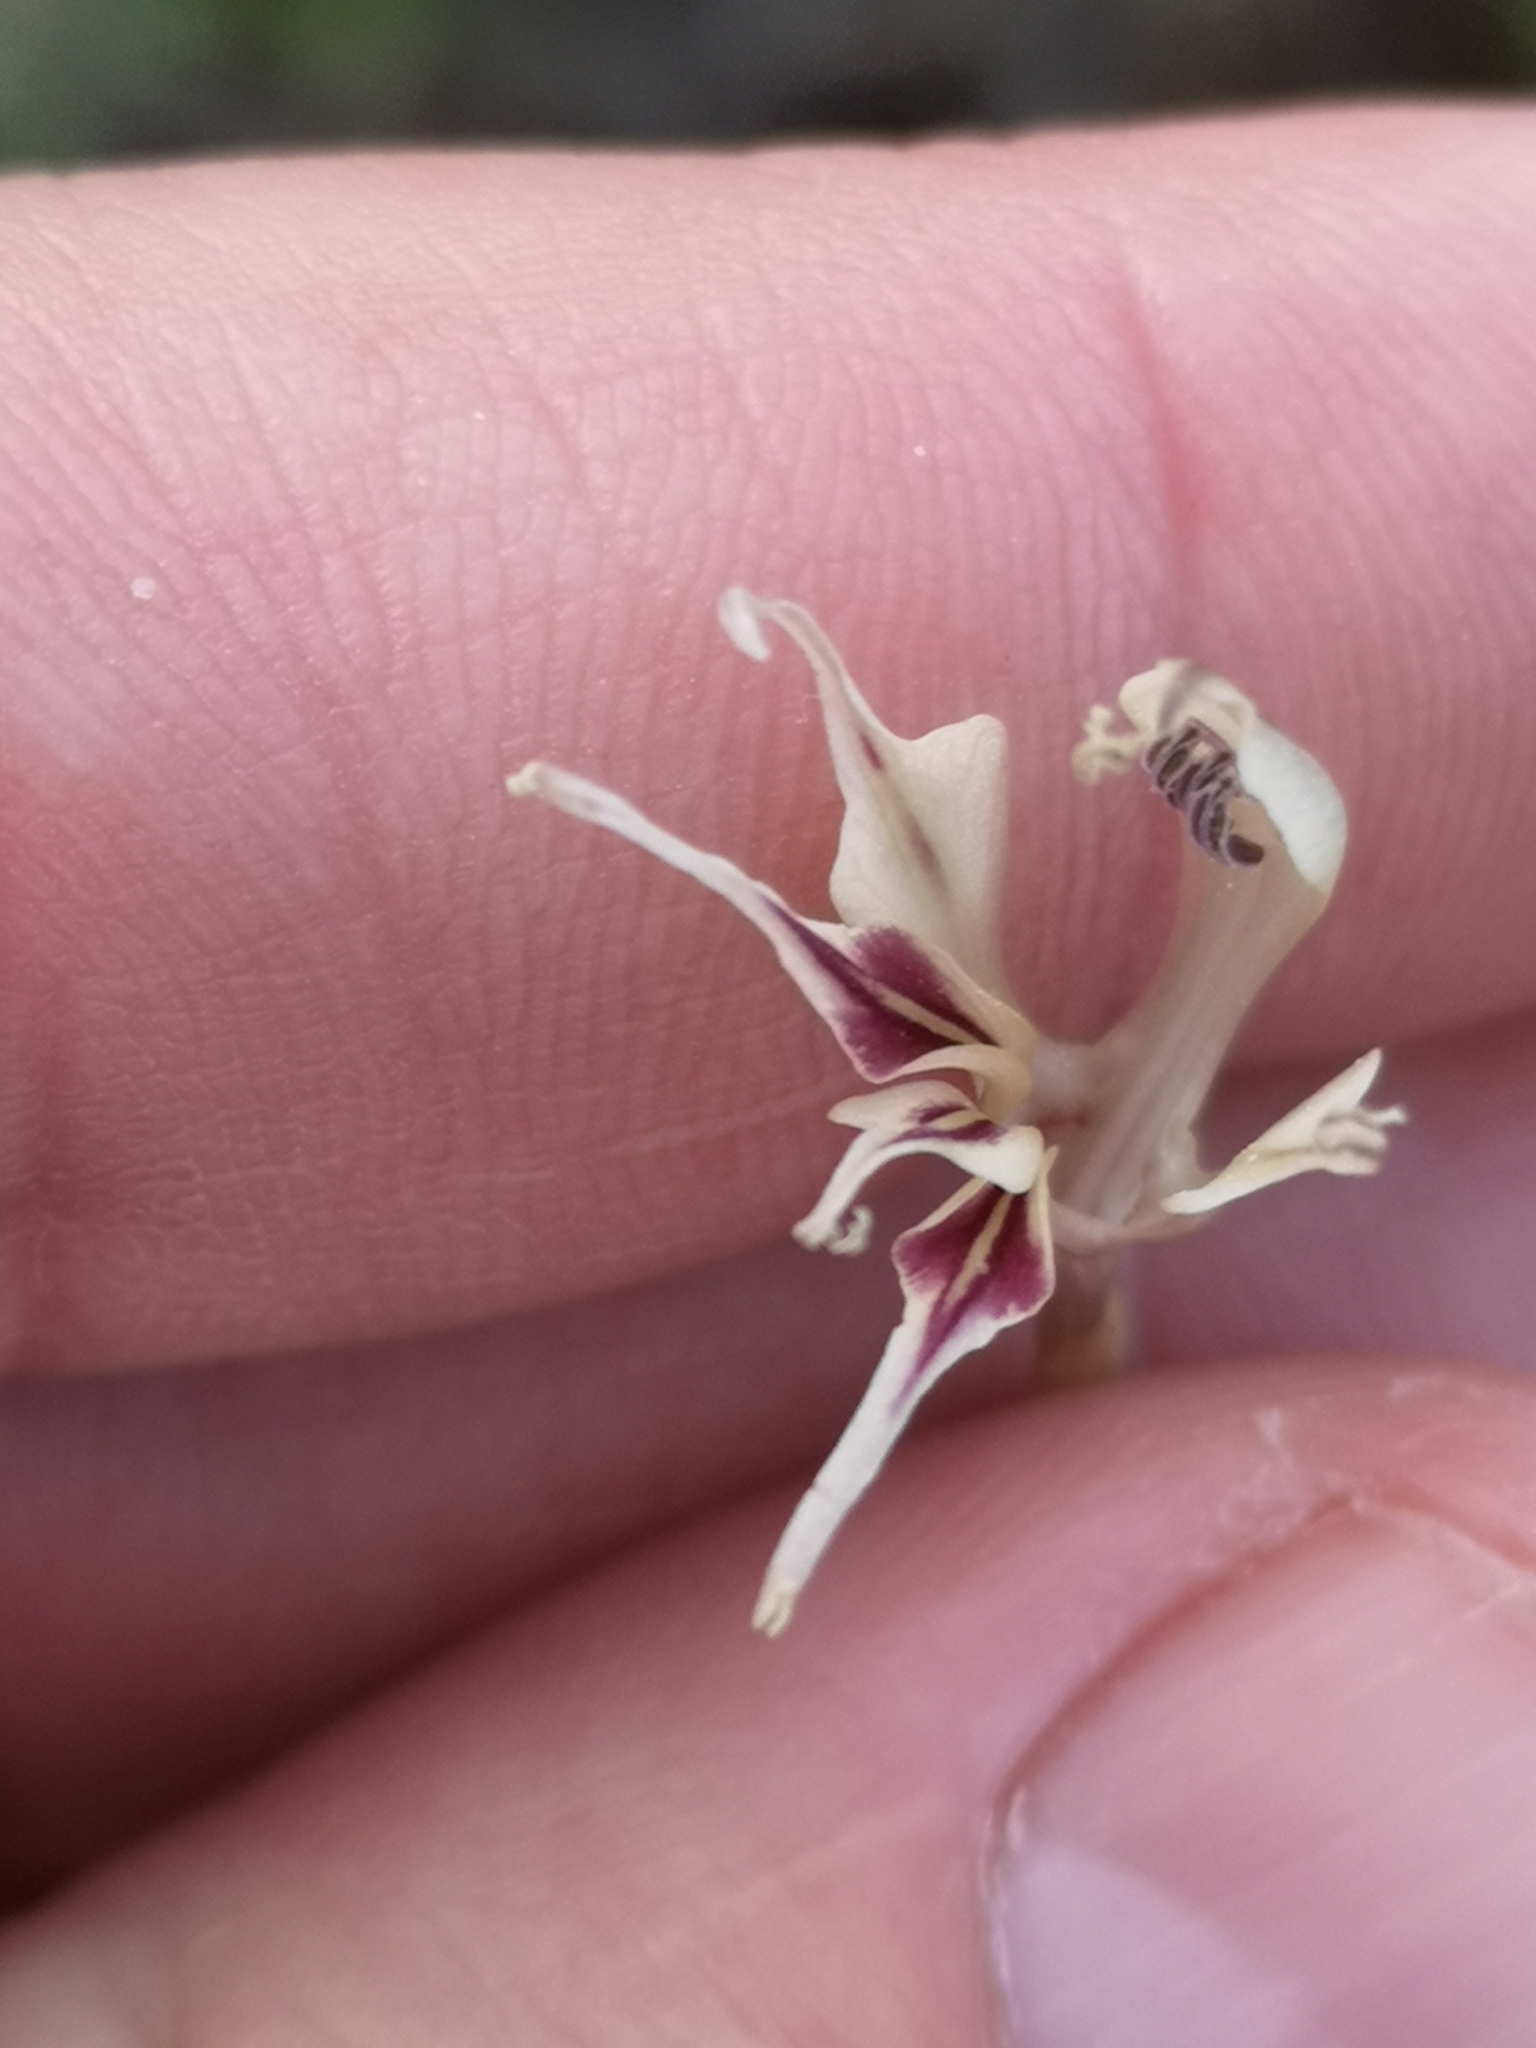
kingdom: Plantae
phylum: Tracheophyta
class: Liliopsida
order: Asparagales
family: Iridaceae
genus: Gladiolus
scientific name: Gladiolus permeabilis
